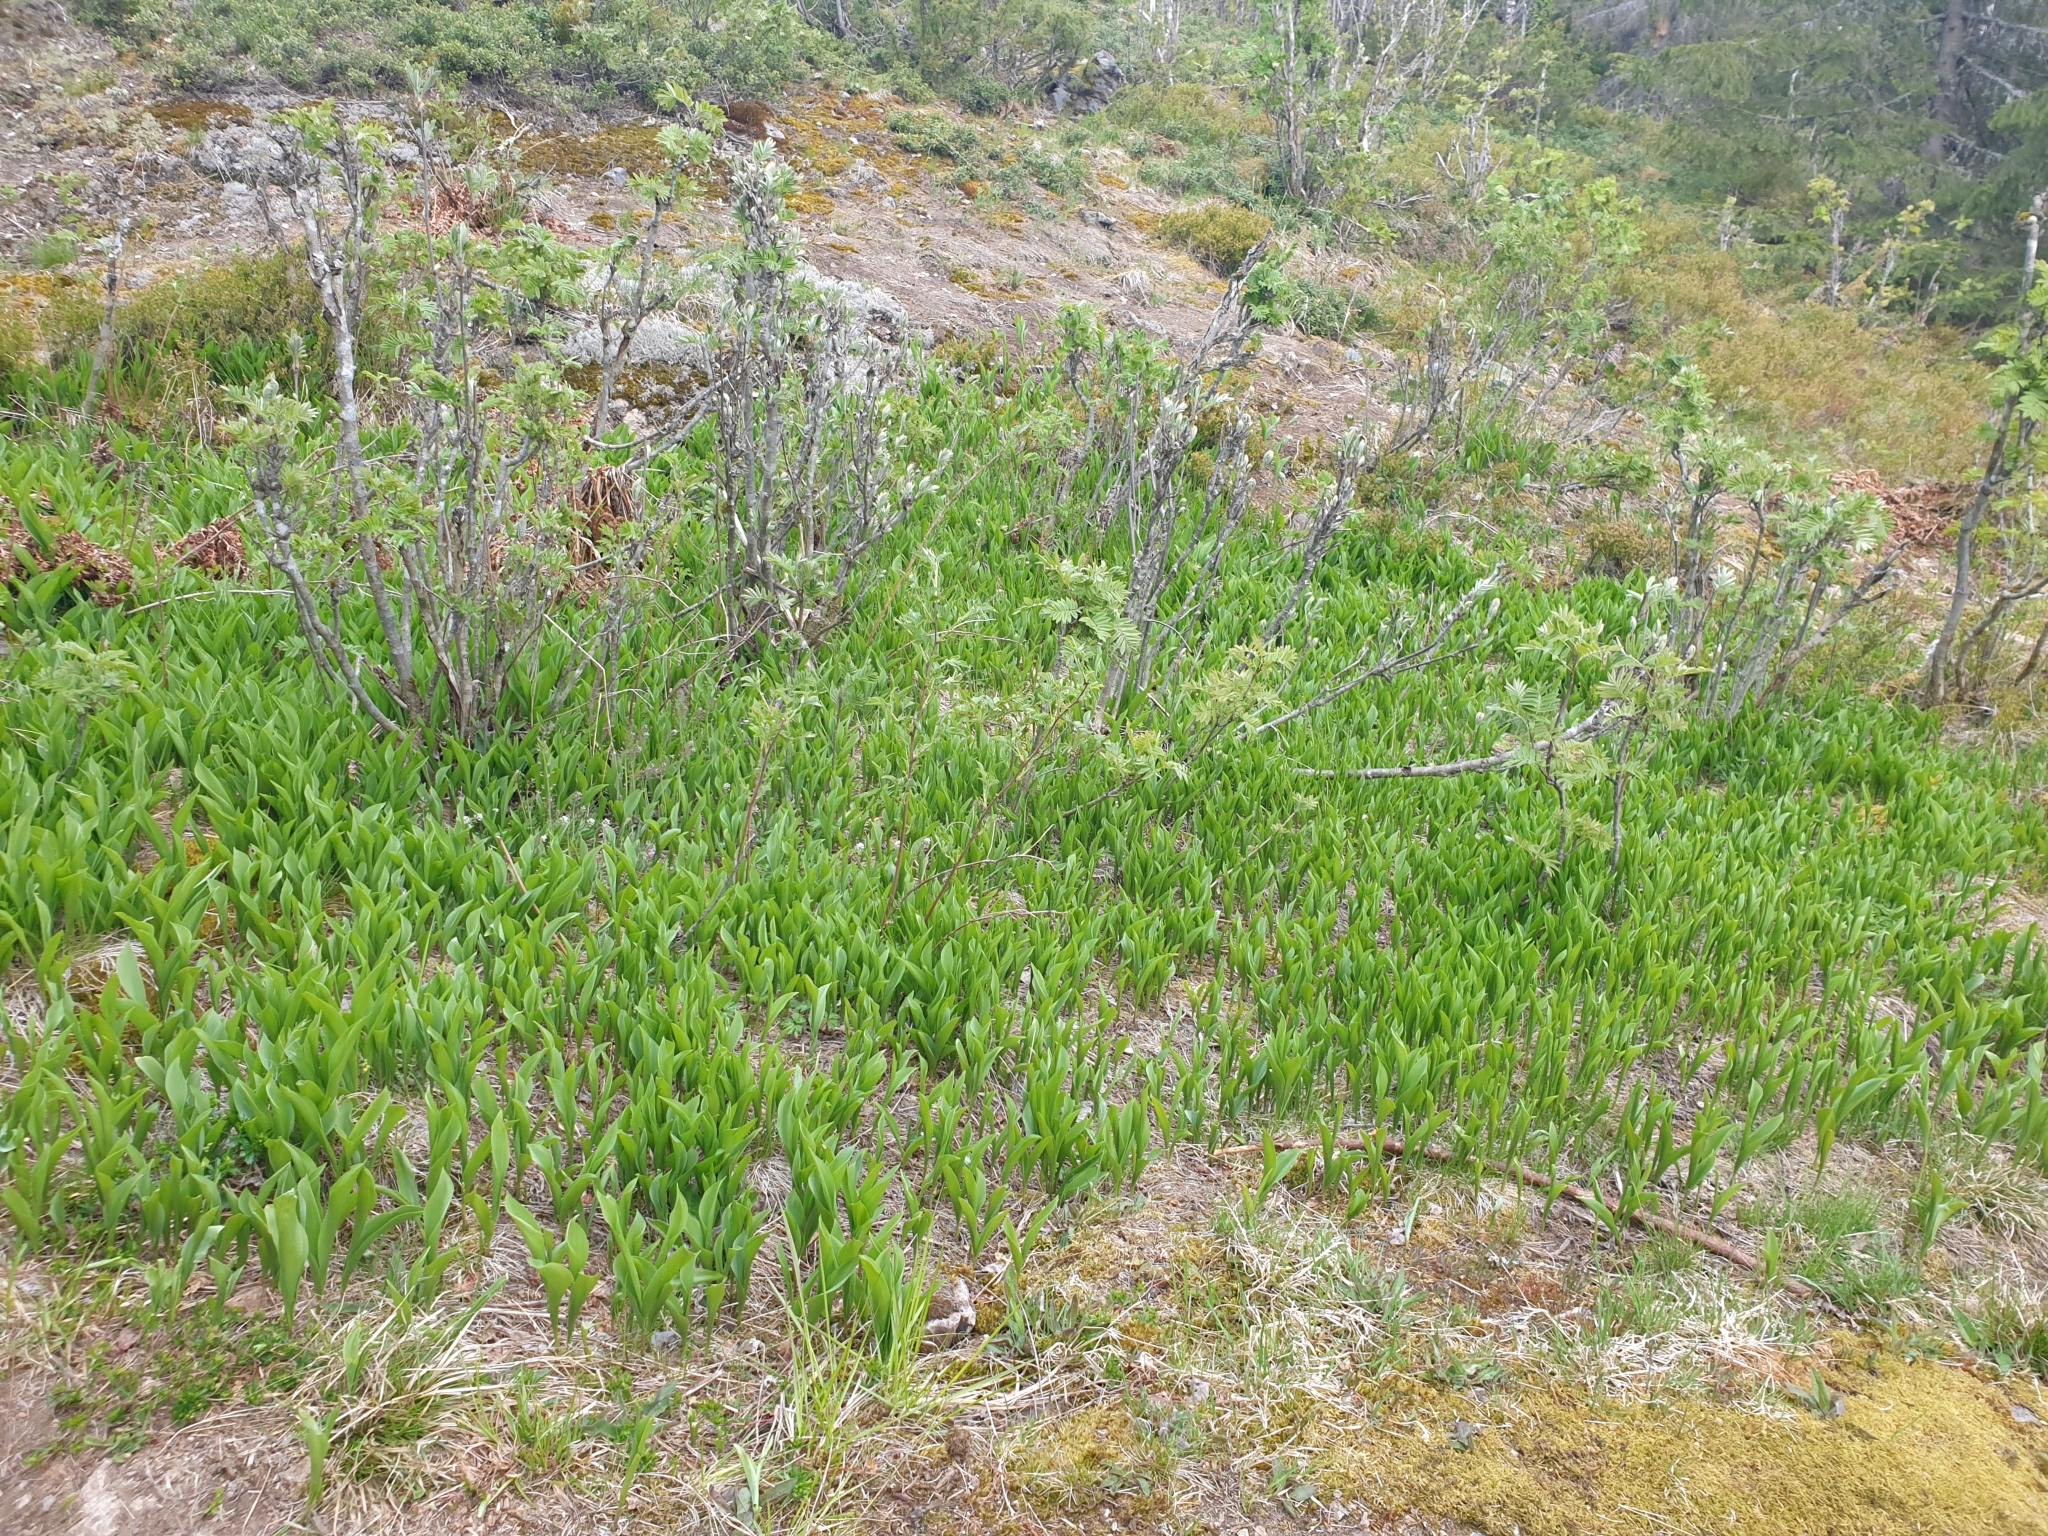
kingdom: Plantae
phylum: Tracheophyta
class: Liliopsida
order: Asparagales
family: Asparagaceae
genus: Convallaria
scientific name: Convallaria majalis
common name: Lily-of-the-valley
